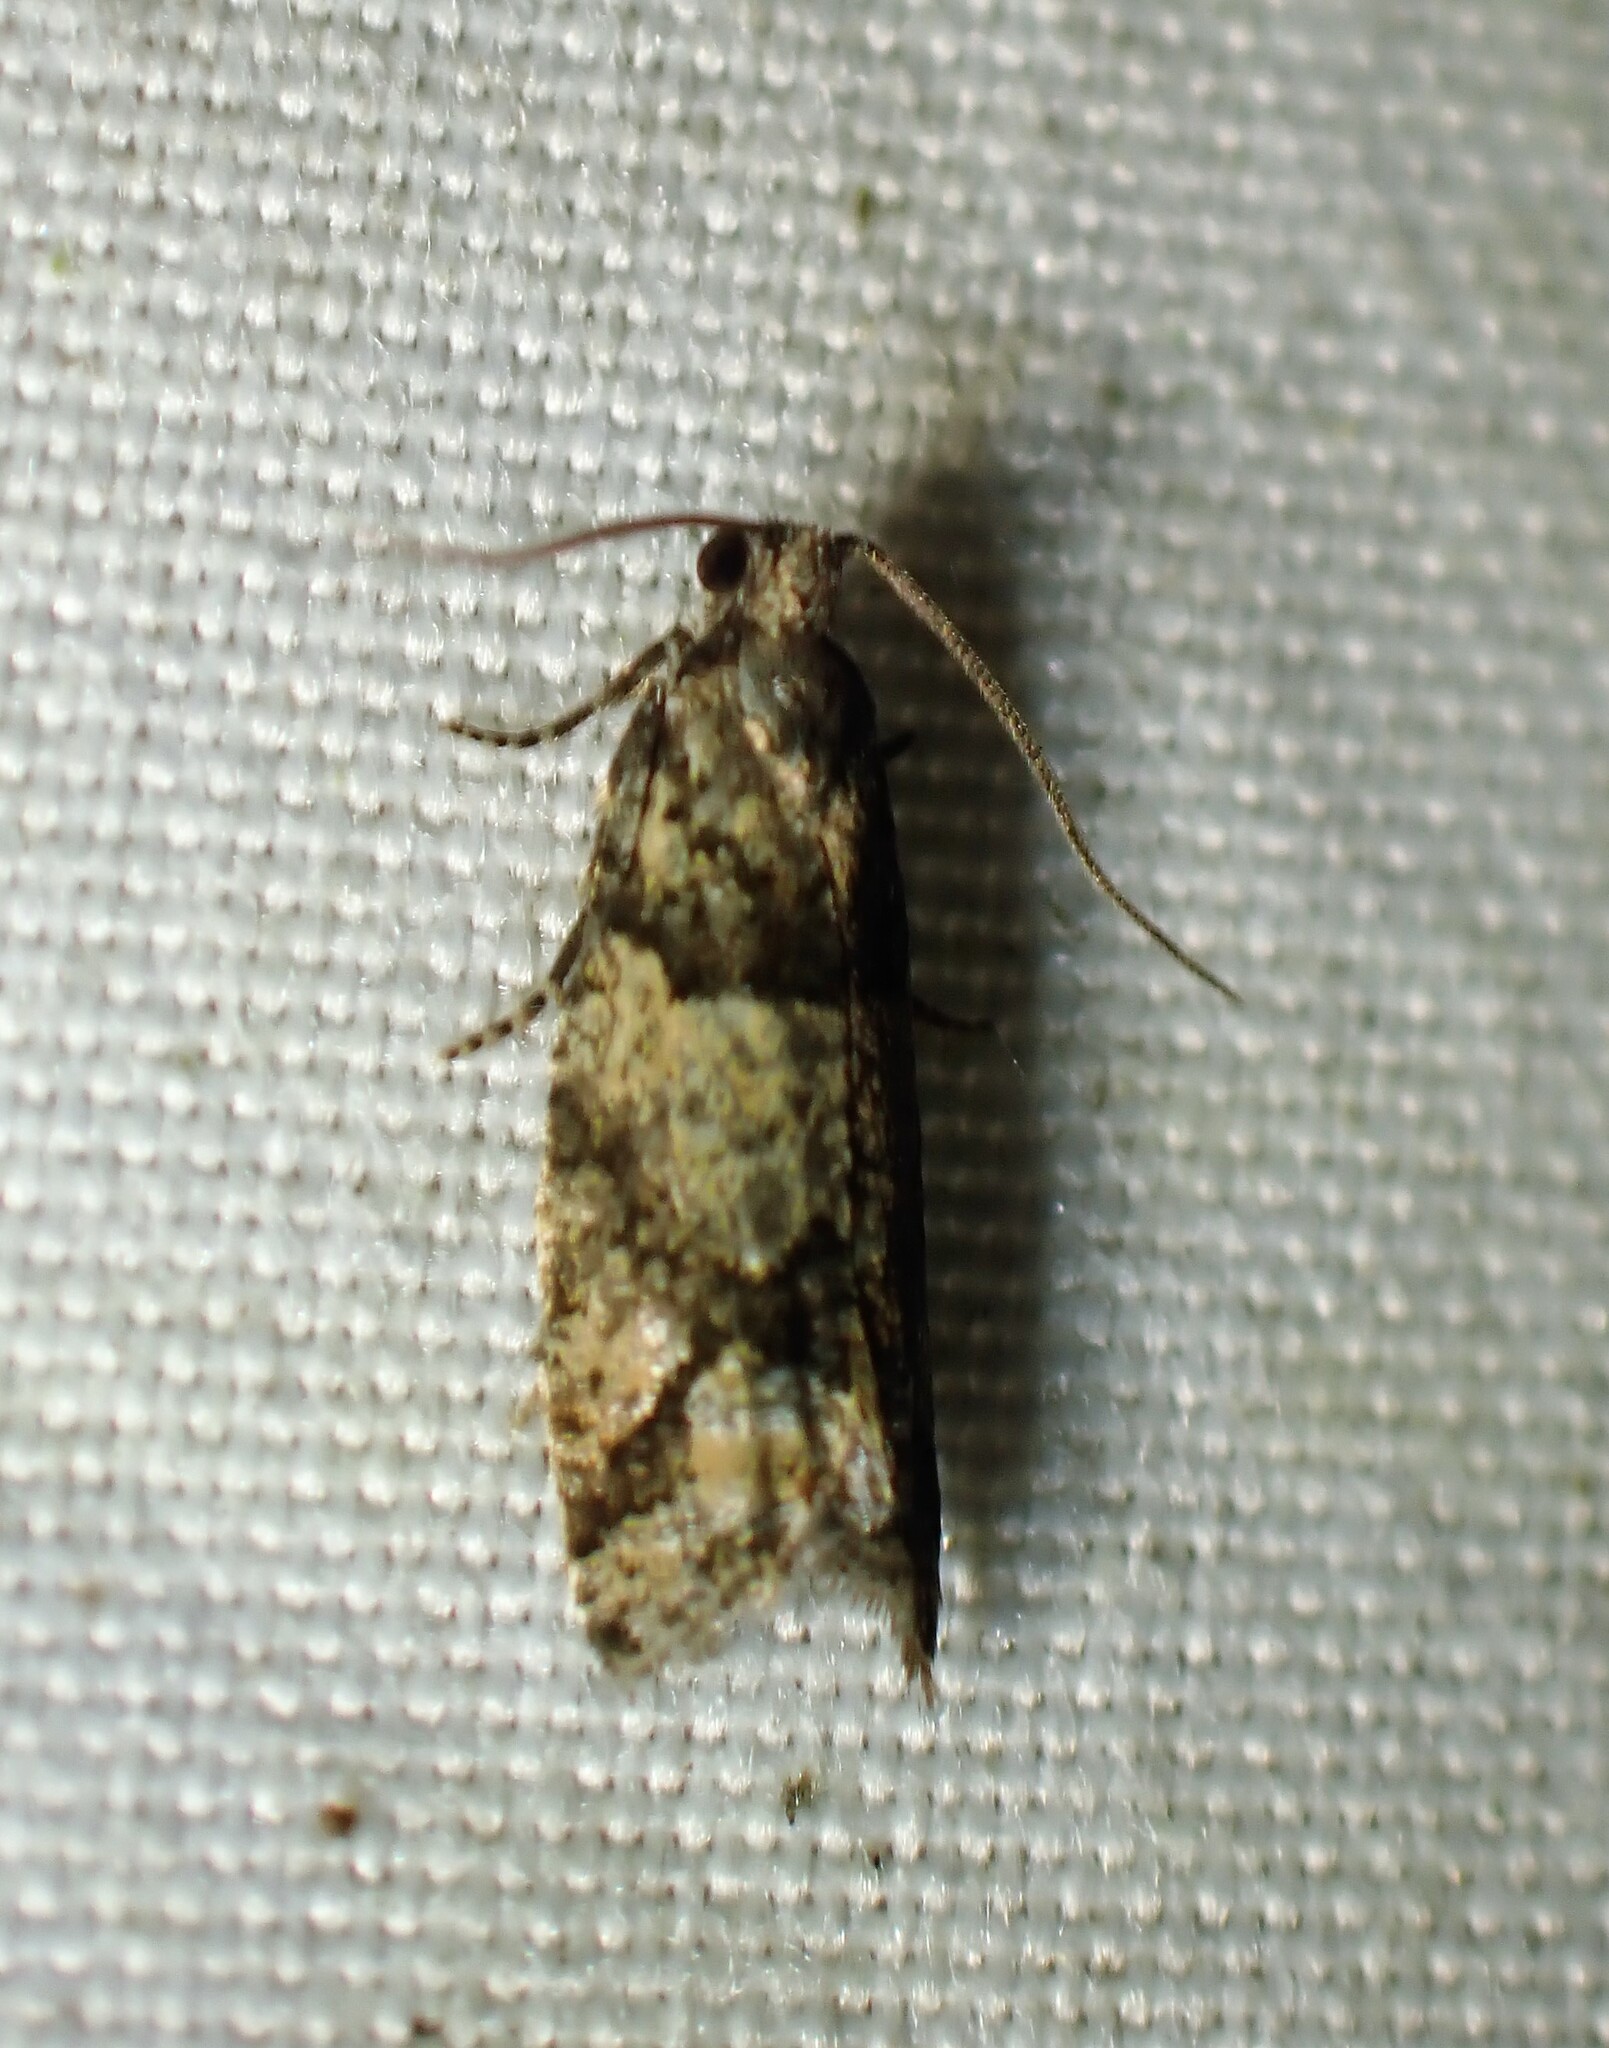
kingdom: Animalia
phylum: Arthropoda
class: Insecta
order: Lepidoptera
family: Tortricidae
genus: Epinotia
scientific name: Epinotia radicana
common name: Red-striped needleworm moth
